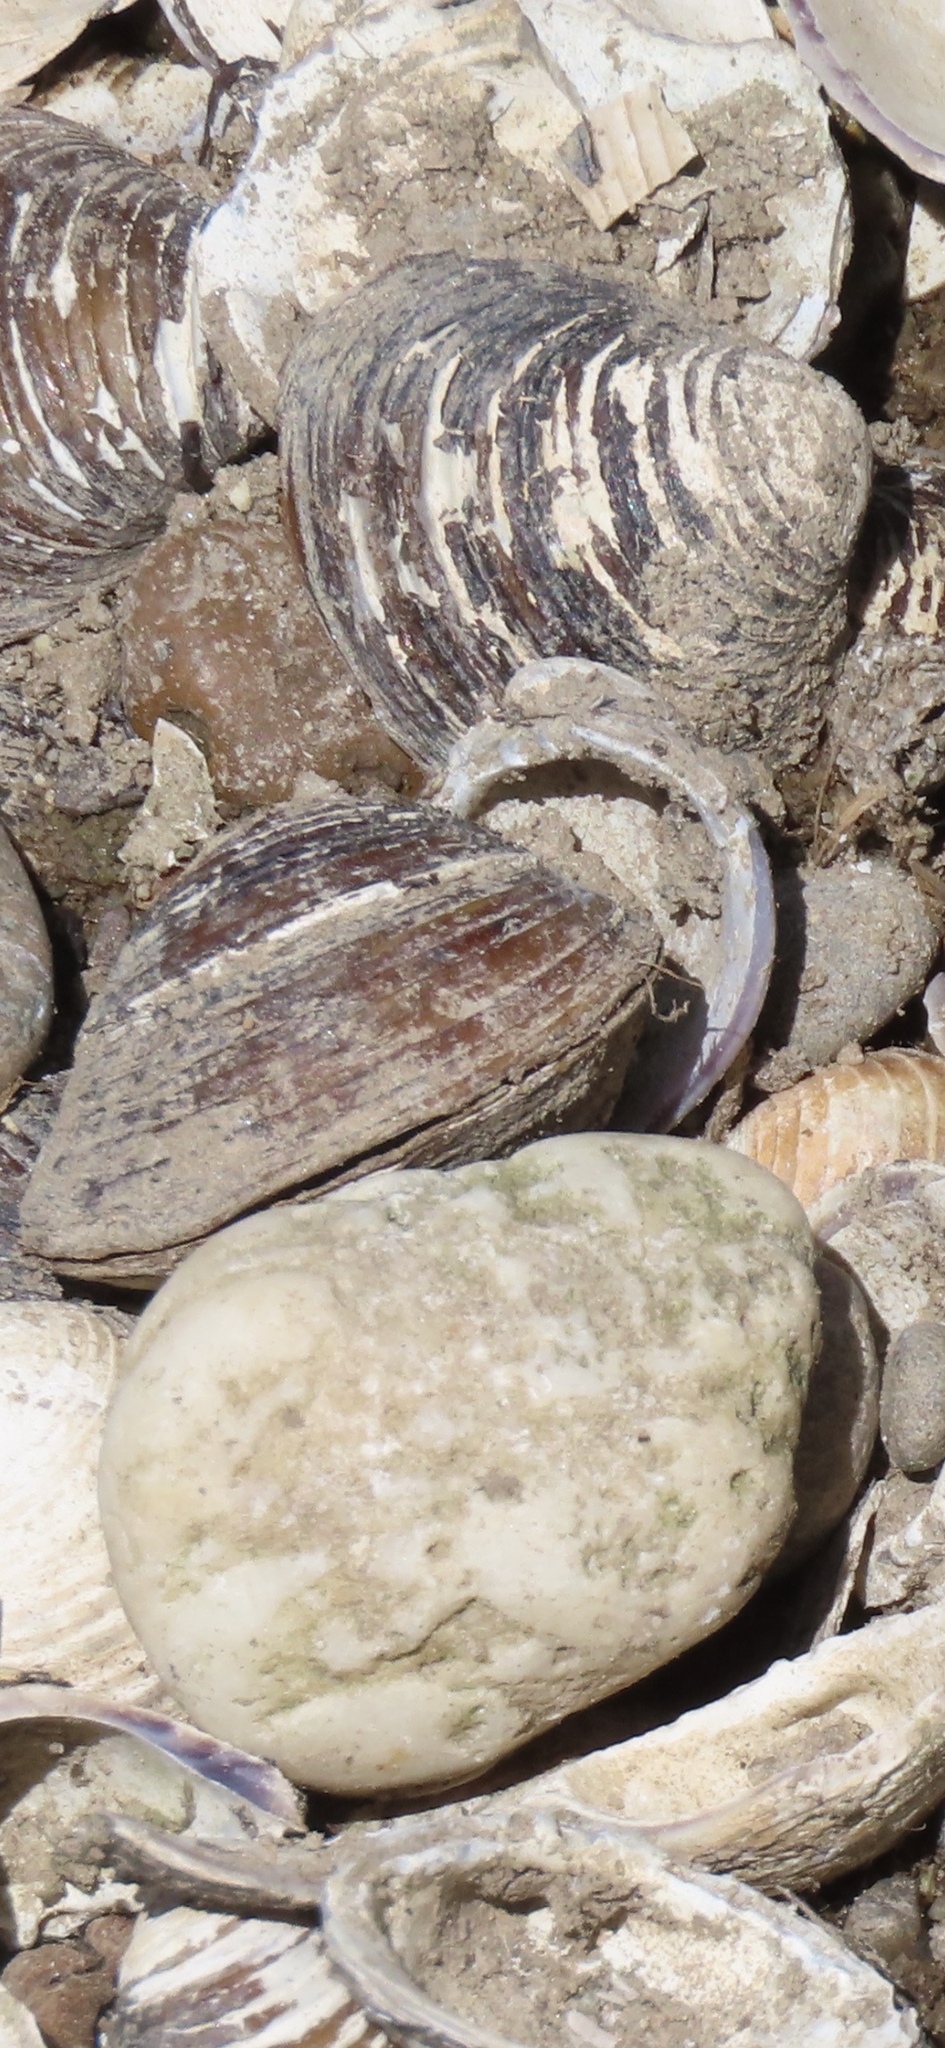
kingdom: Animalia
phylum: Mollusca
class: Bivalvia
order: Venerida
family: Cyrenidae
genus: Corbicula
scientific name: Corbicula fluminea
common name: Asian clam
